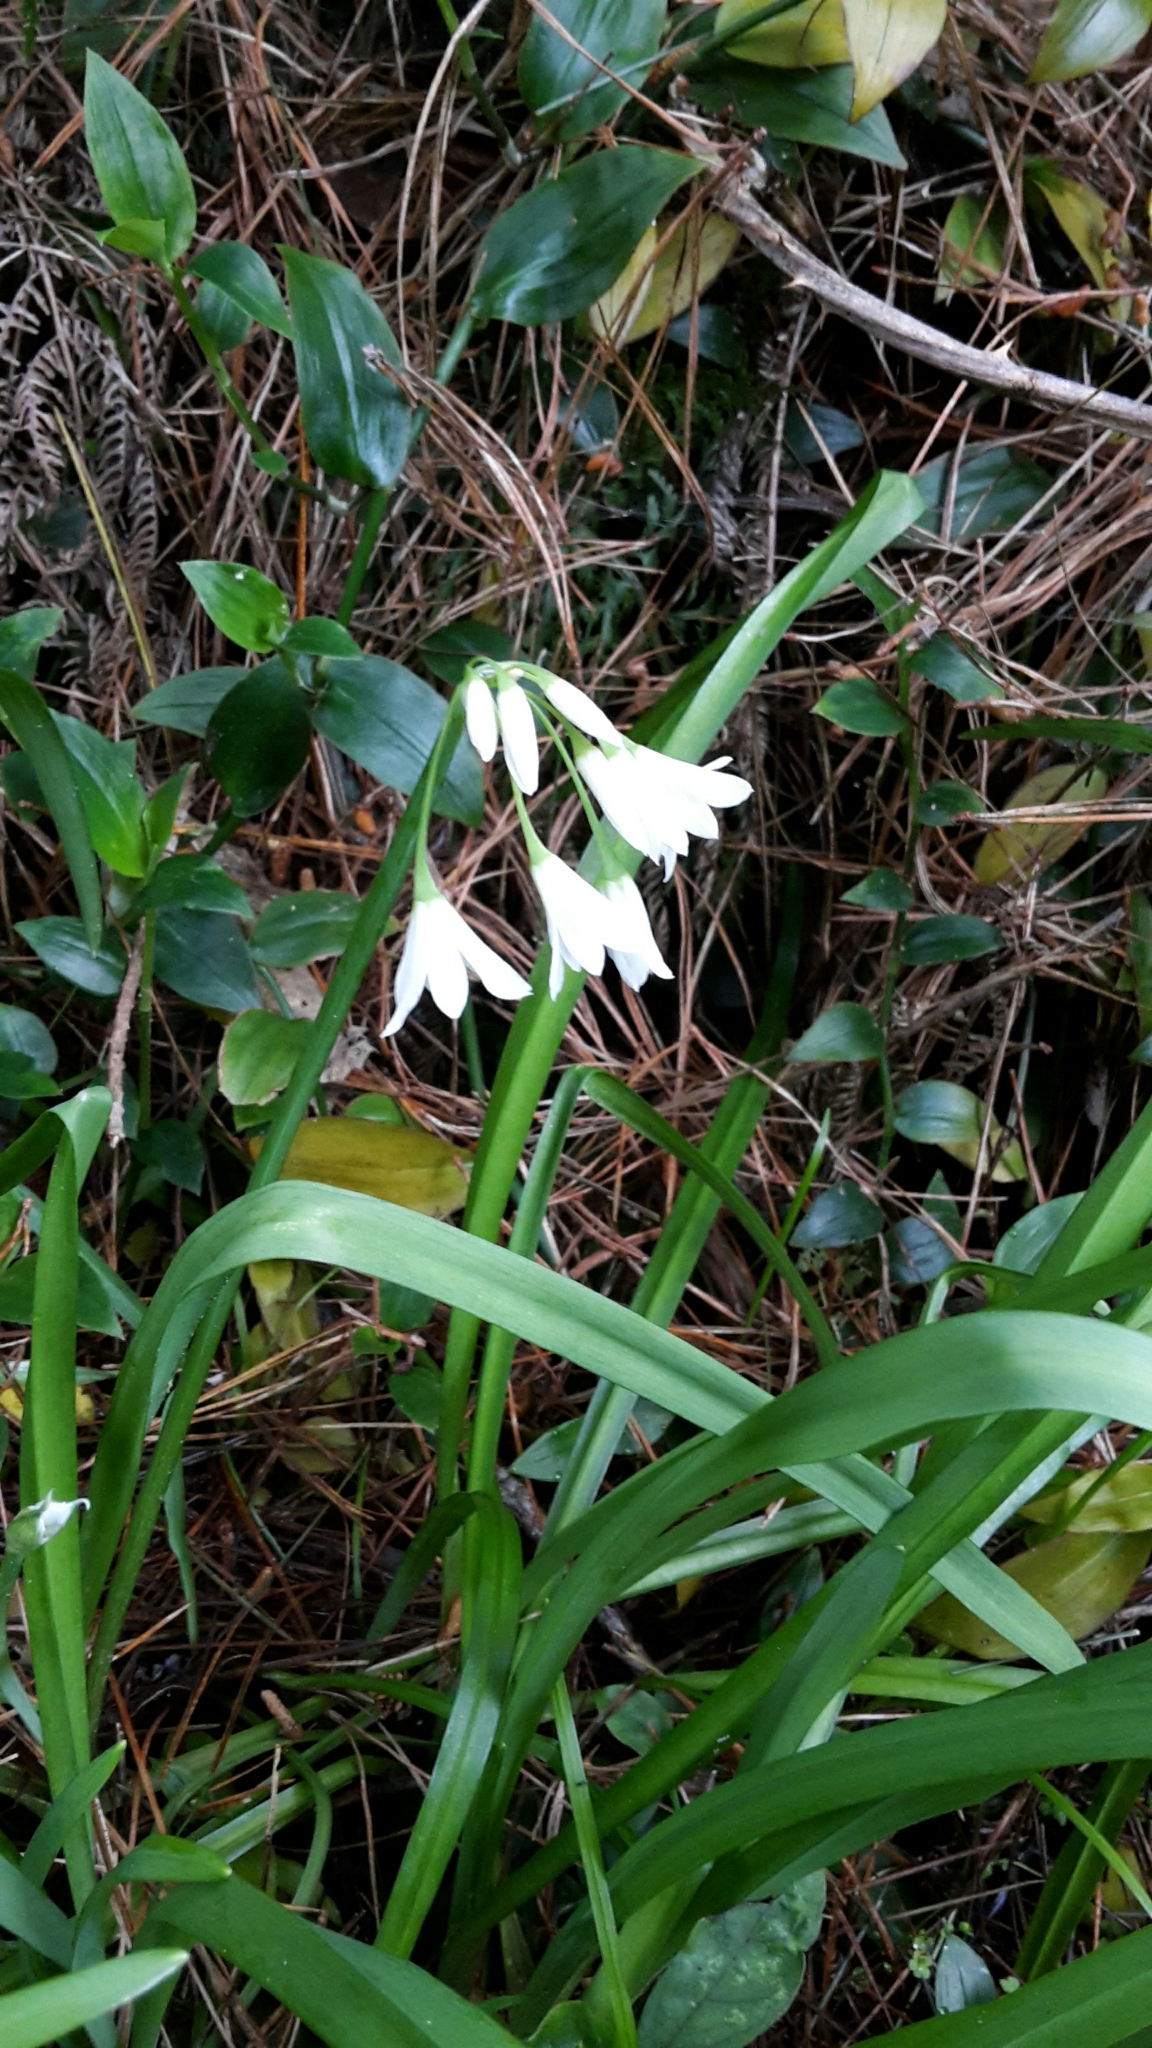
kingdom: Plantae
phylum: Tracheophyta
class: Liliopsida
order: Asparagales
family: Amaryllidaceae
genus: Allium
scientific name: Allium triquetrum
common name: Three-cornered garlic
